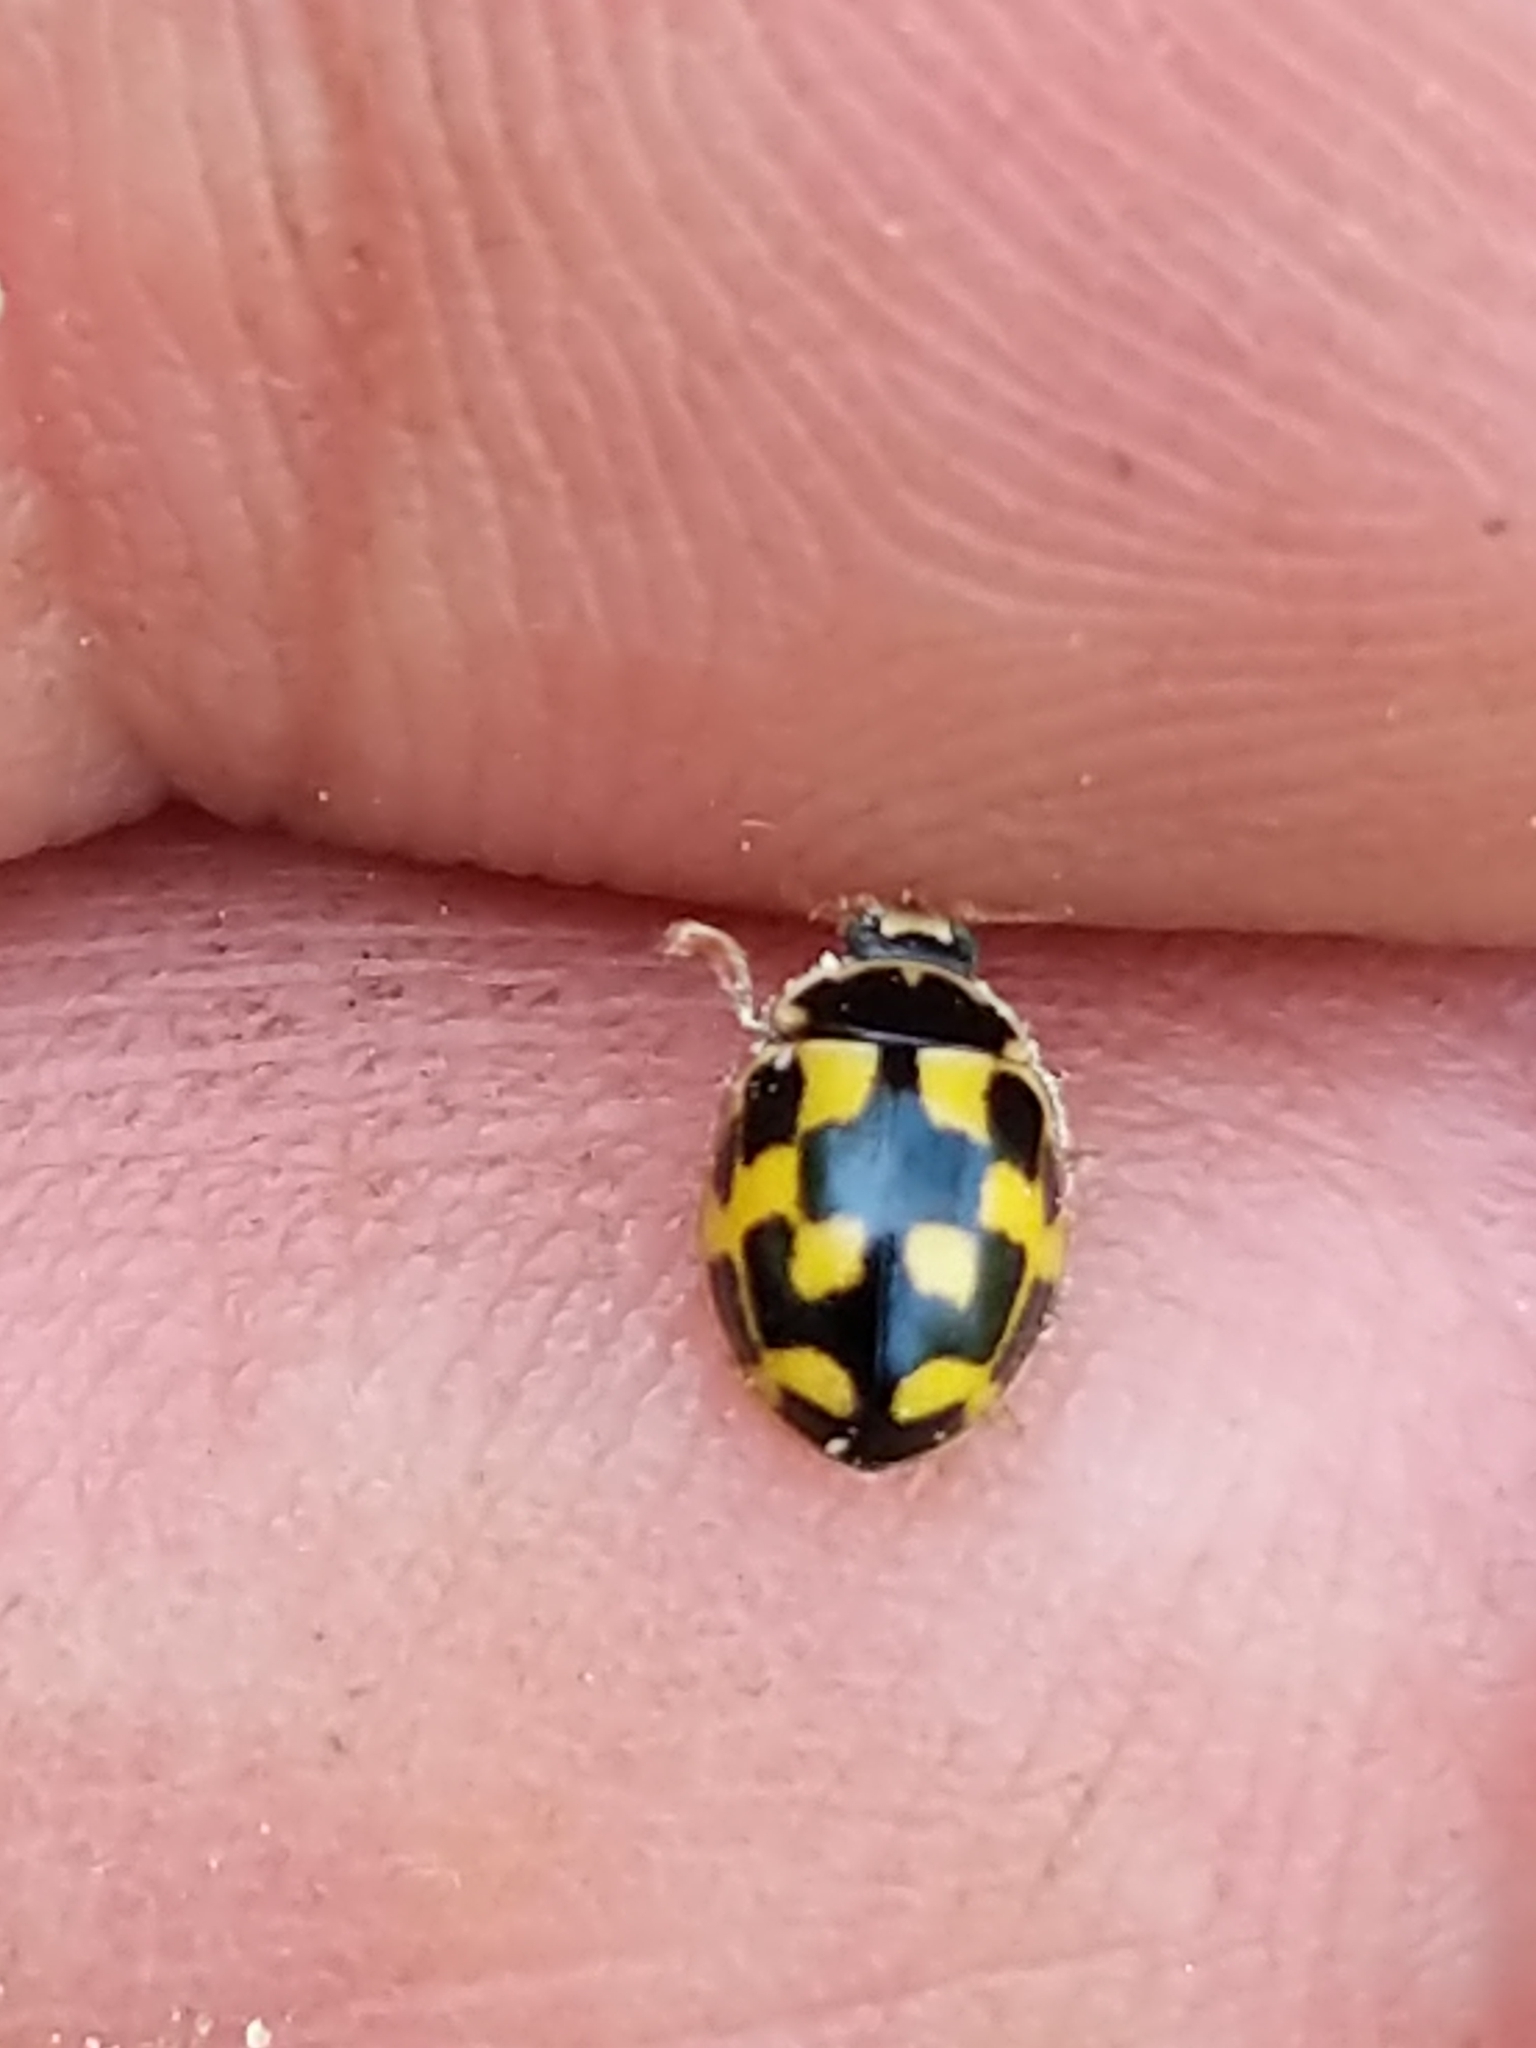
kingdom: Animalia
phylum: Arthropoda
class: Insecta
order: Coleoptera
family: Coccinellidae
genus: Propylaea
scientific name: Propylaea quatuordecimpunctata
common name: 14-spotted ladybird beetle
